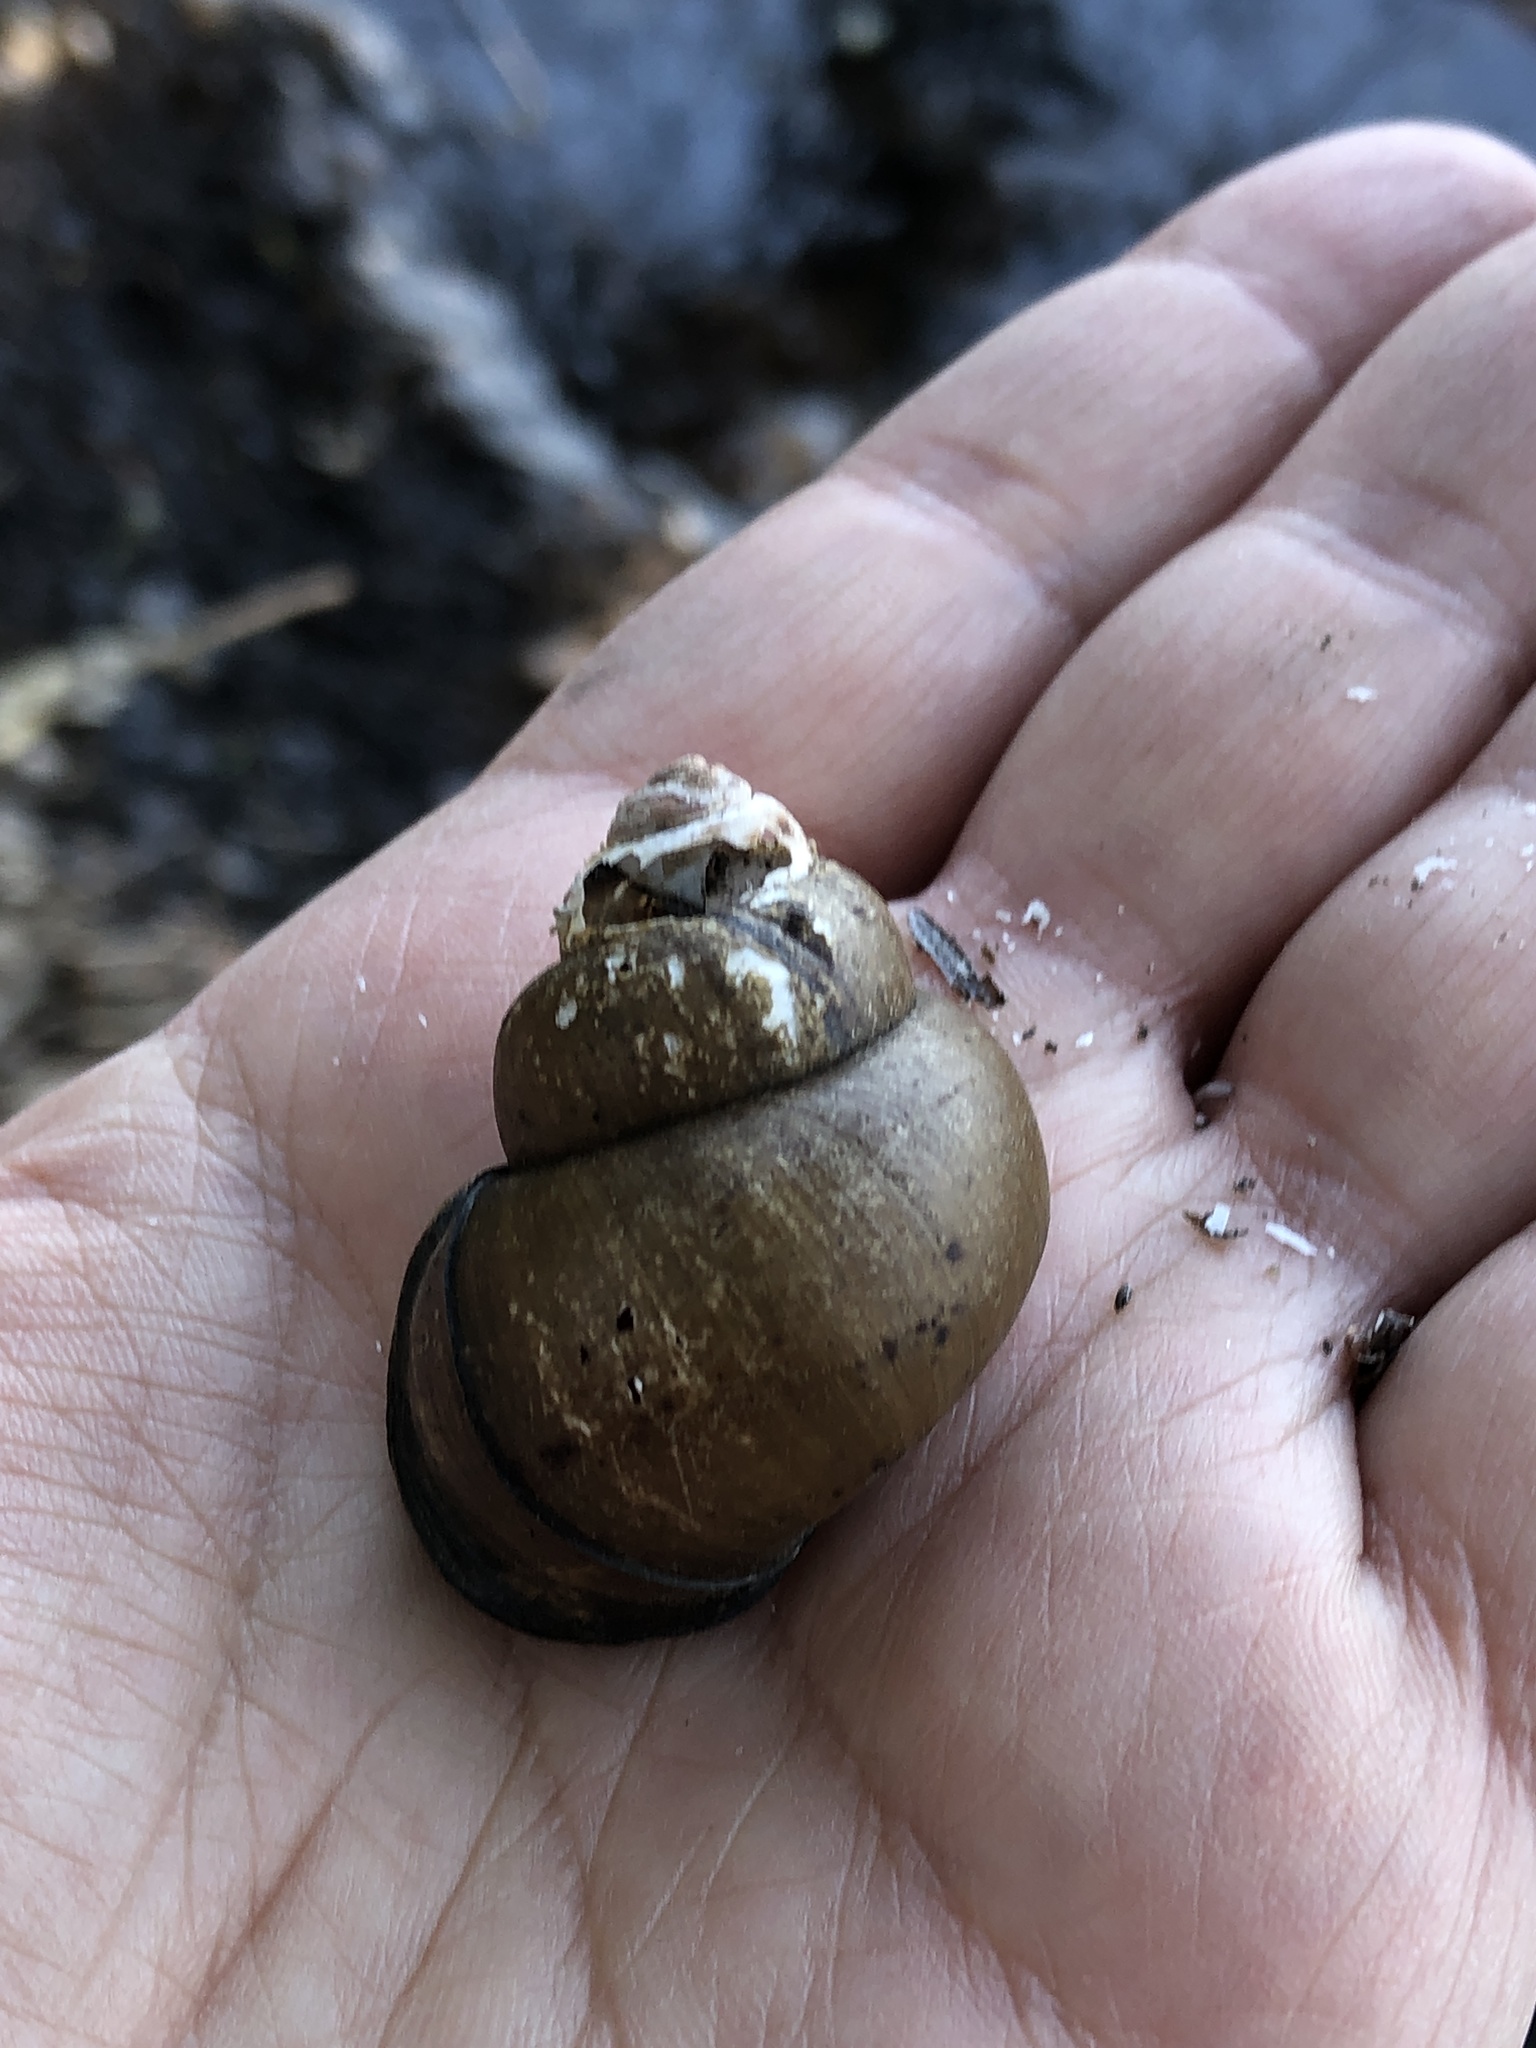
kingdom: Animalia
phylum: Mollusca
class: Gastropoda
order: Architaenioglossa
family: Viviparidae
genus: Cipangopaludina
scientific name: Cipangopaludina chinensis
